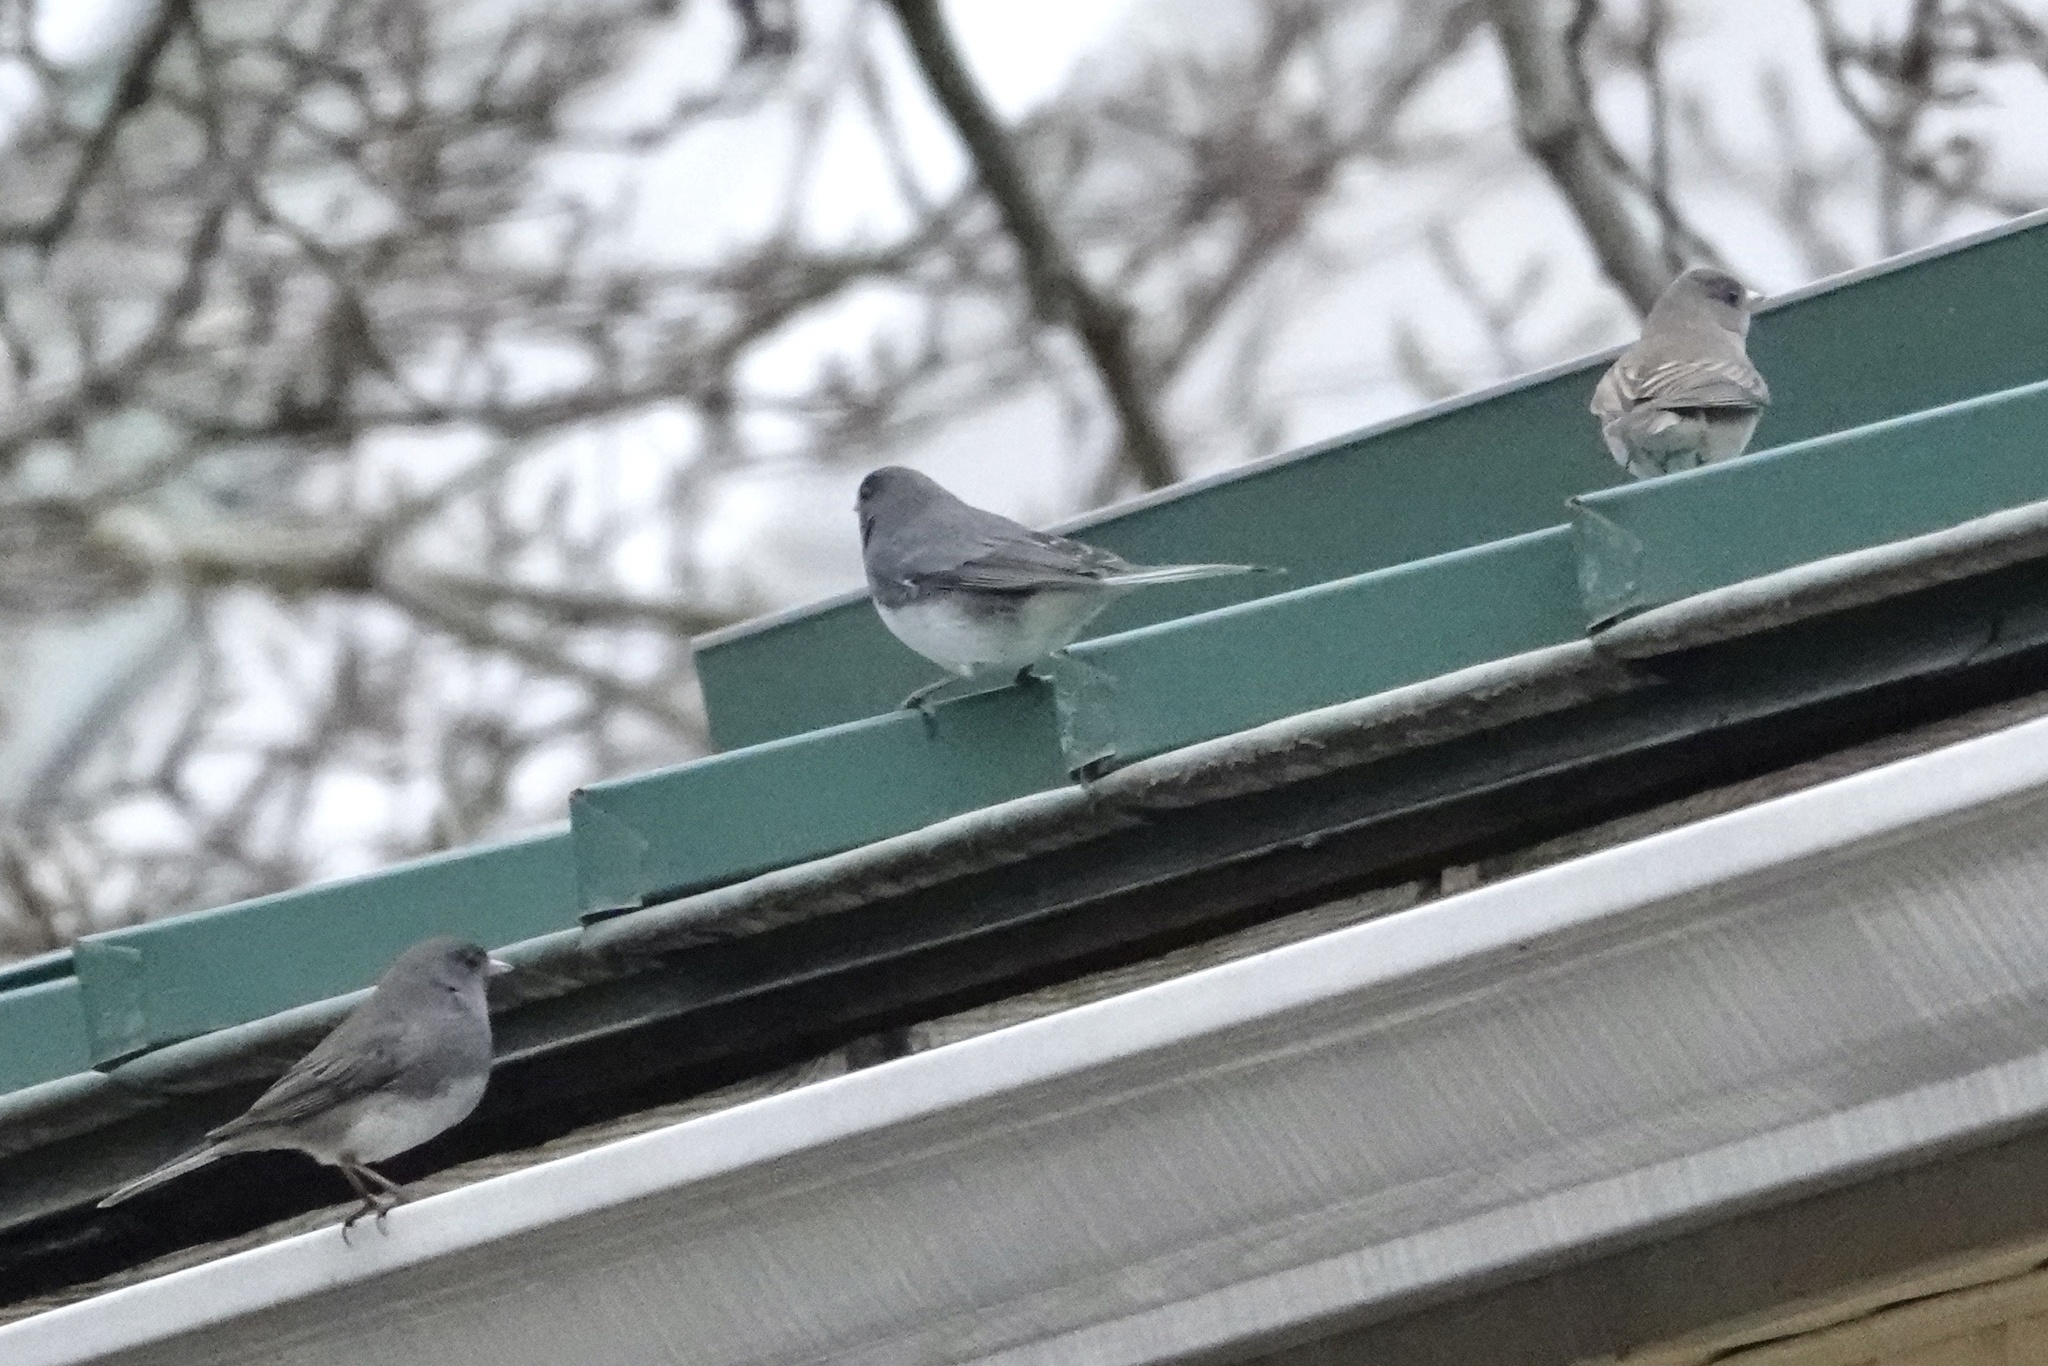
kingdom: Animalia
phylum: Chordata
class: Aves
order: Passeriformes
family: Passerellidae
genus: Junco
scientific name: Junco hyemalis
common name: Dark-eyed junco
